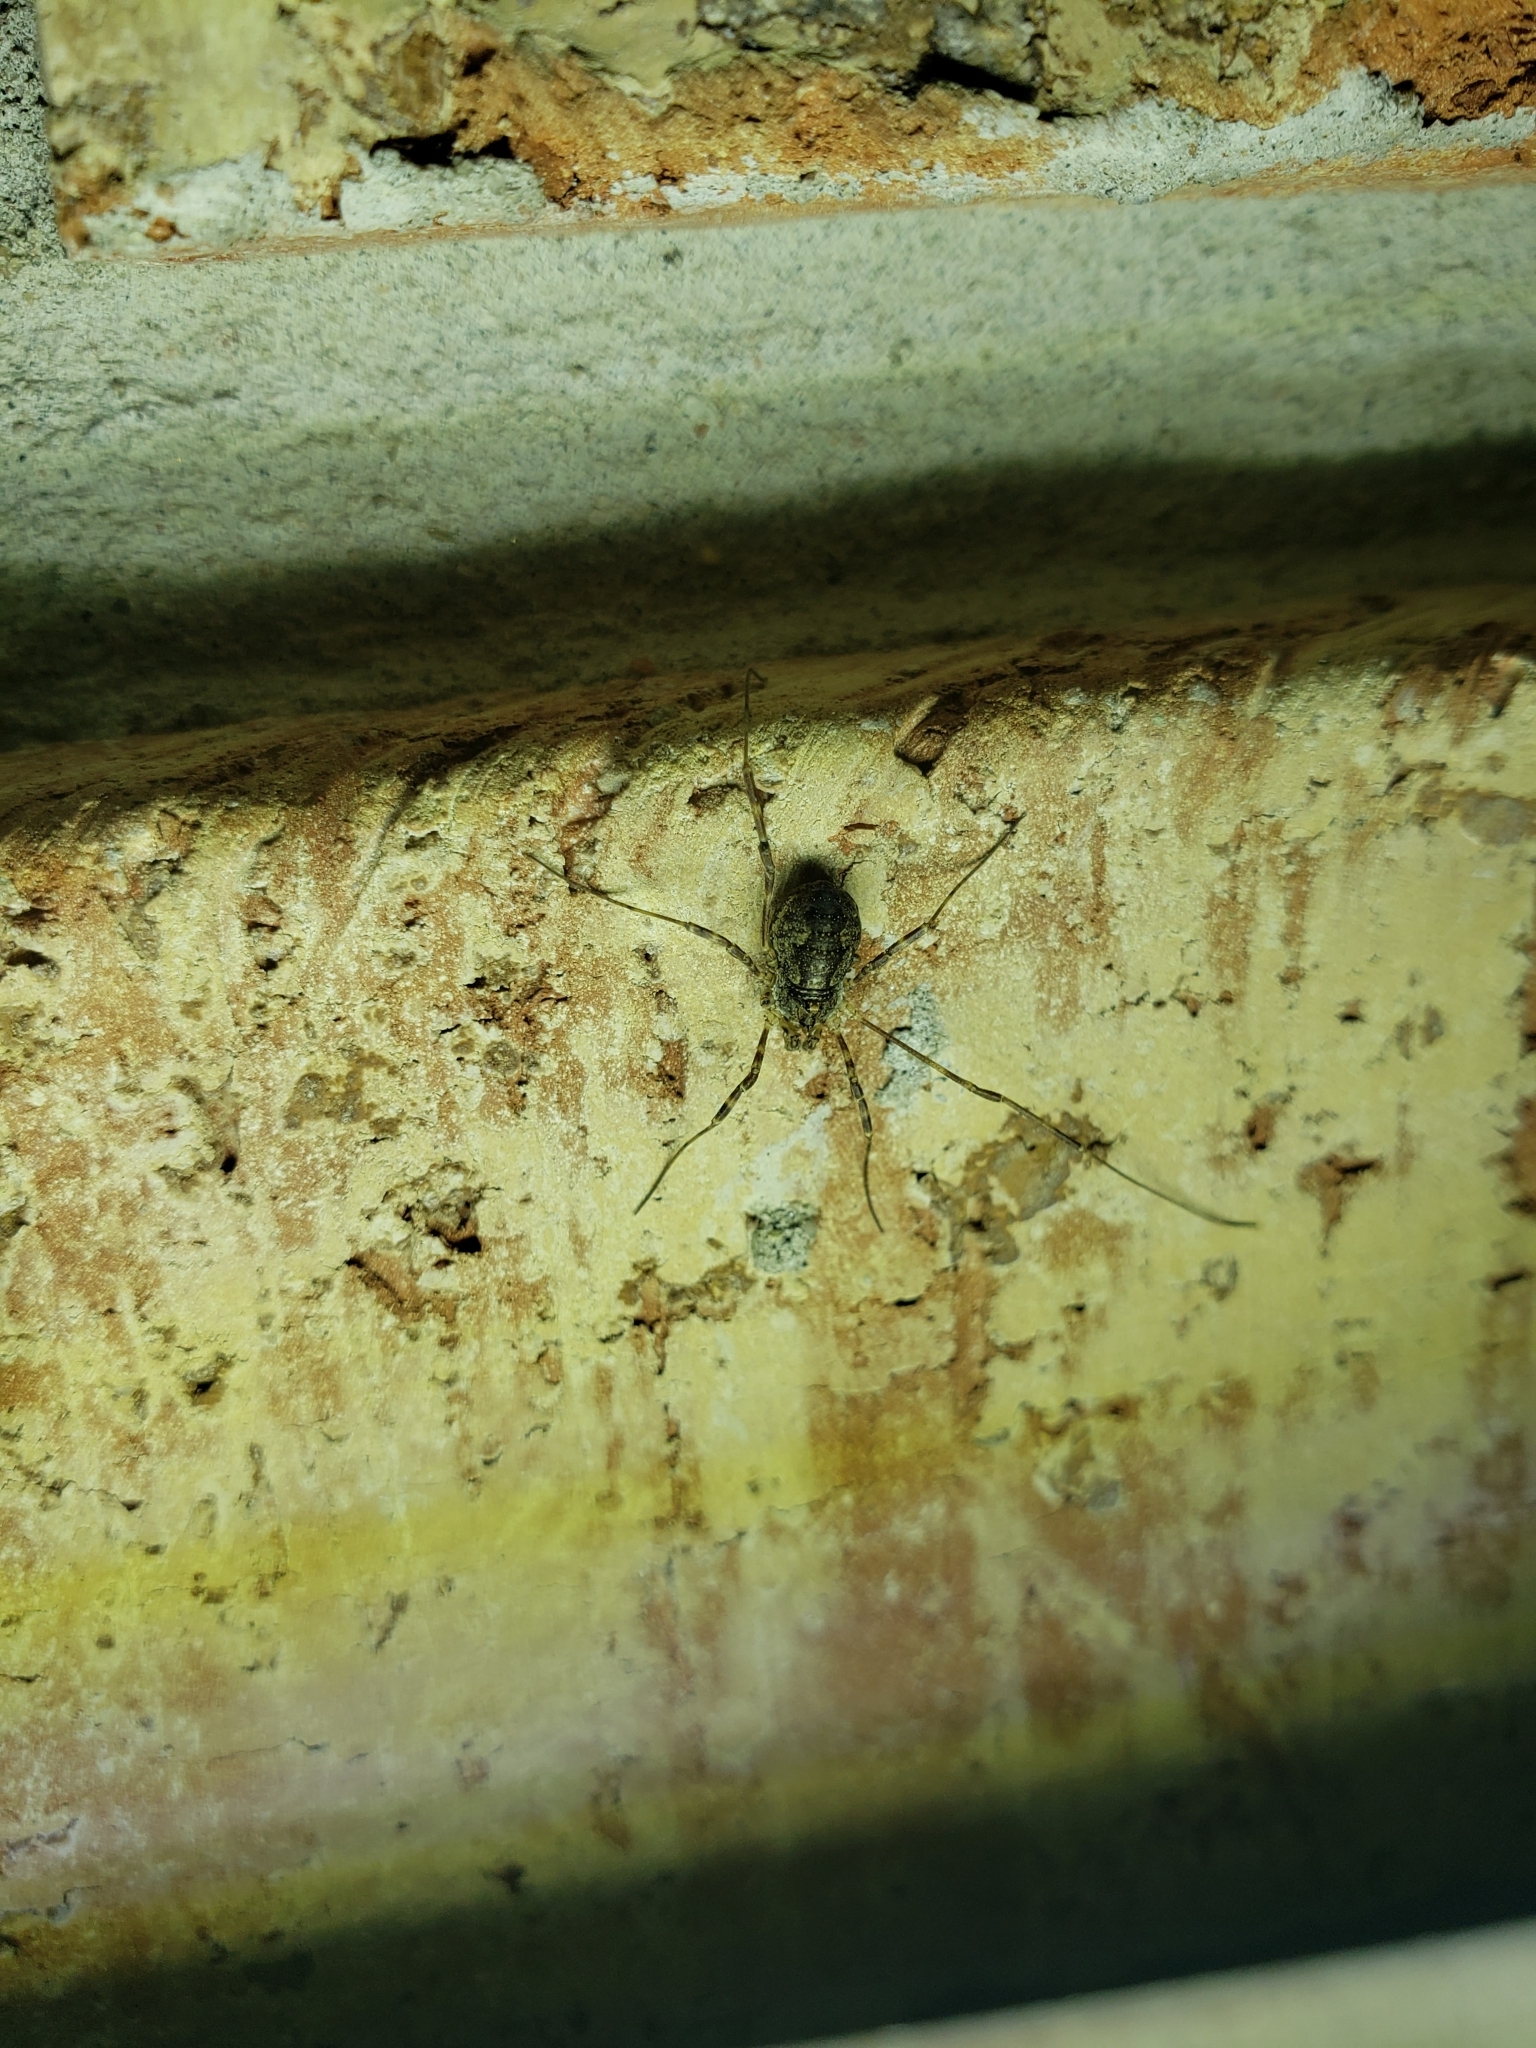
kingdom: Animalia
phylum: Arthropoda
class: Arachnida
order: Opiliones
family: Phalangiidae
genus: Odiellus
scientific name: Odiellus pictus
